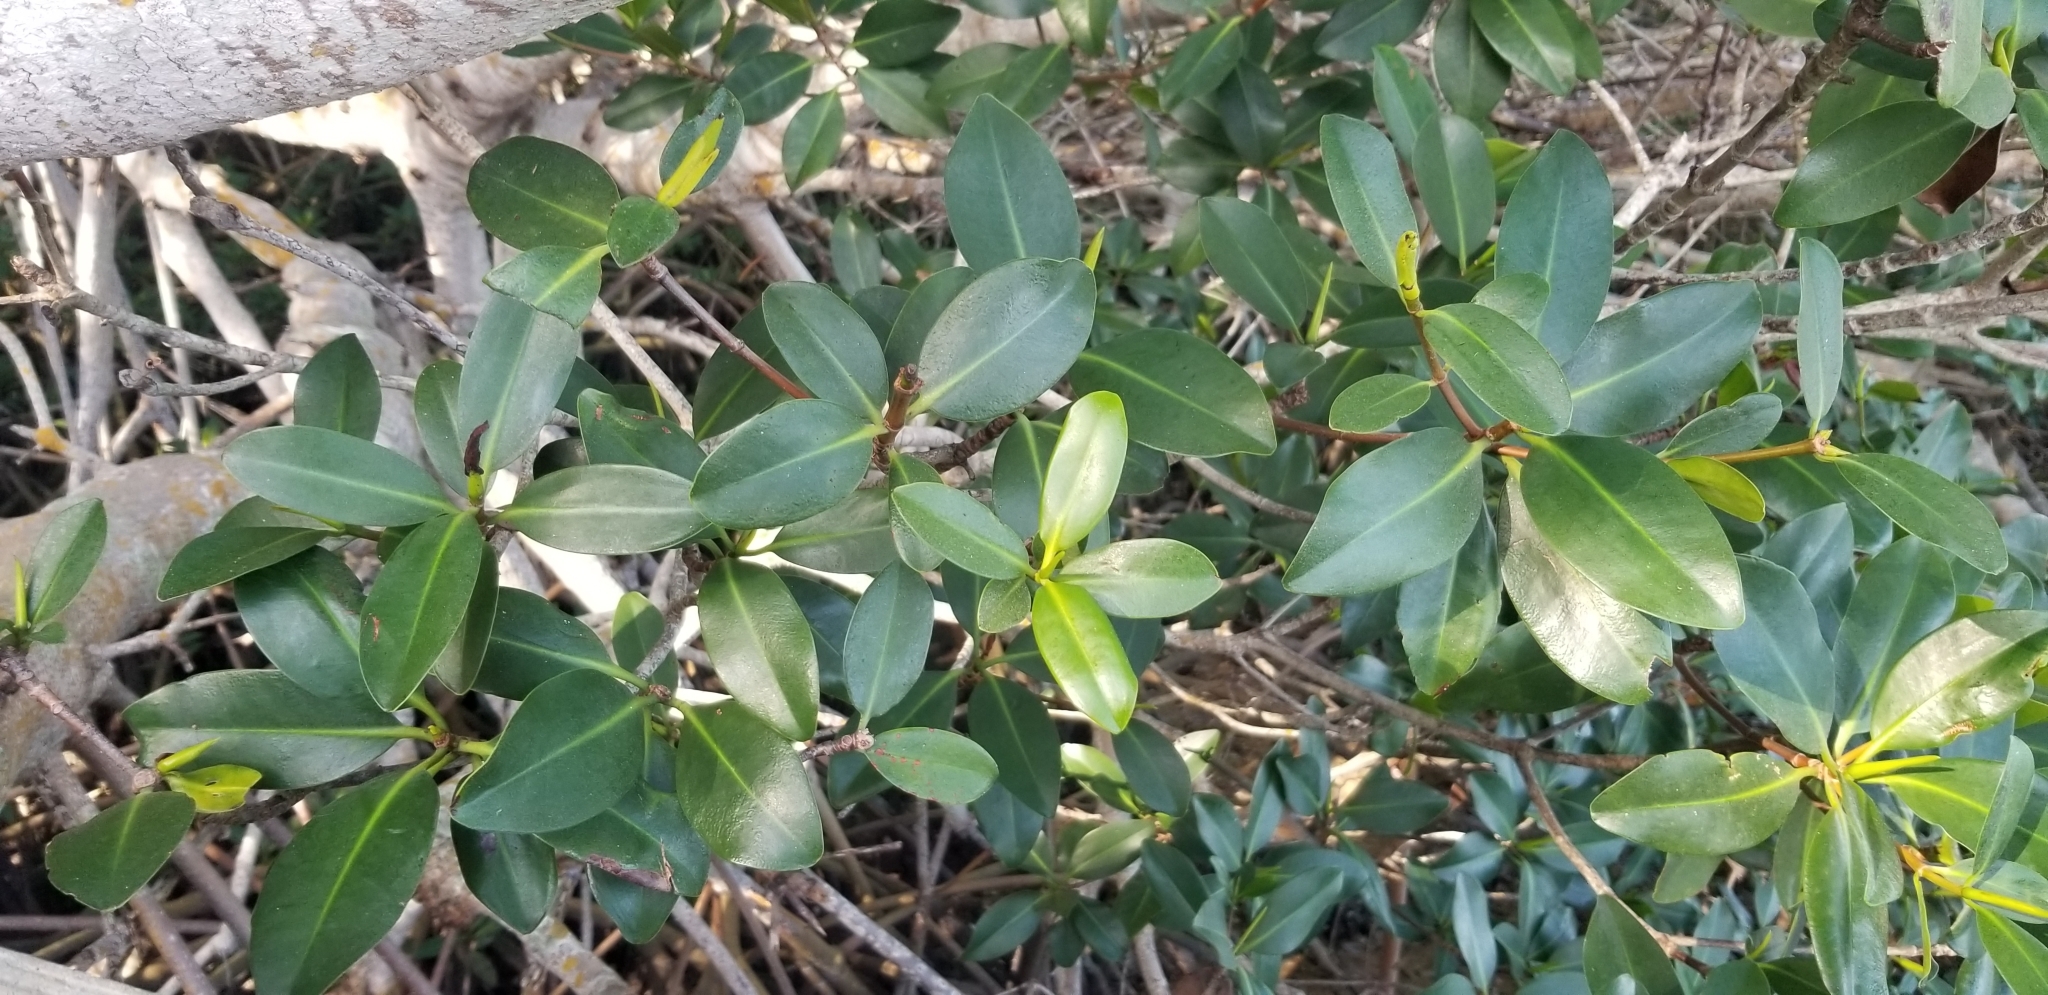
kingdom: Plantae
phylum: Tracheophyta
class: Magnoliopsida
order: Malpighiales
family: Rhizophoraceae
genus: Rhizophora
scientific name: Rhizophora mangle
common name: Red mangrove
